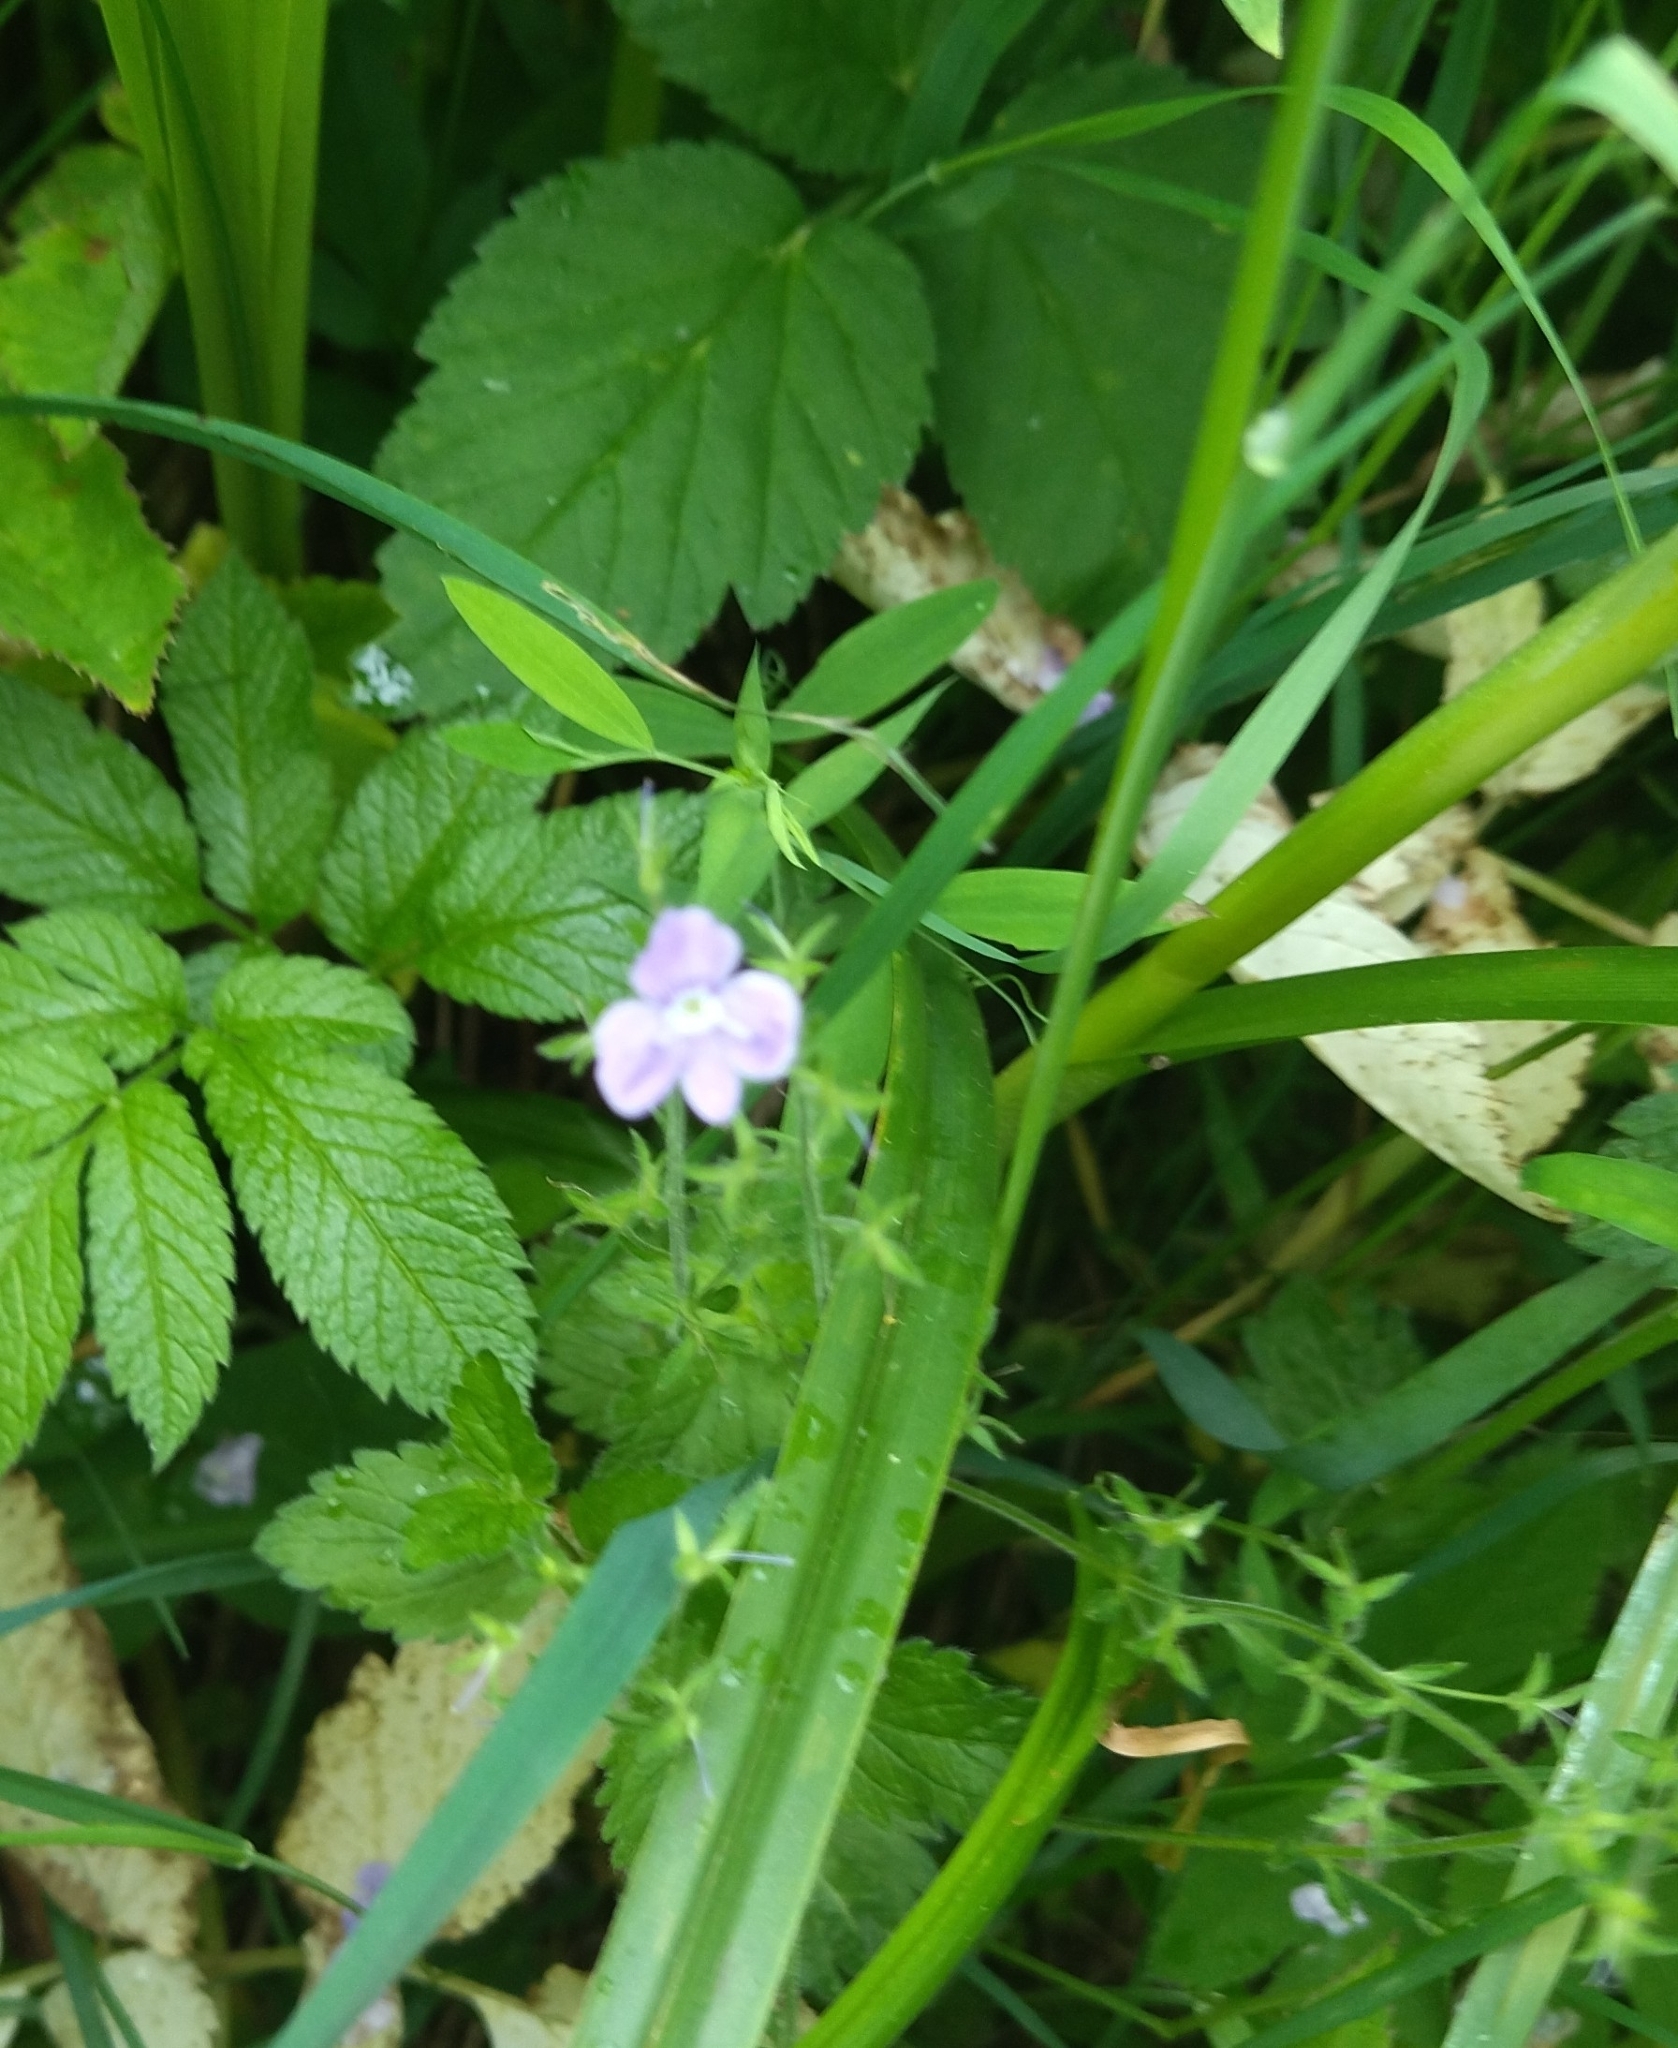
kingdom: Plantae
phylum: Tracheophyta
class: Magnoliopsida
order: Lamiales
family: Plantaginaceae
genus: Veronica
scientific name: Veronica chamaedrys
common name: Germander speedwell
